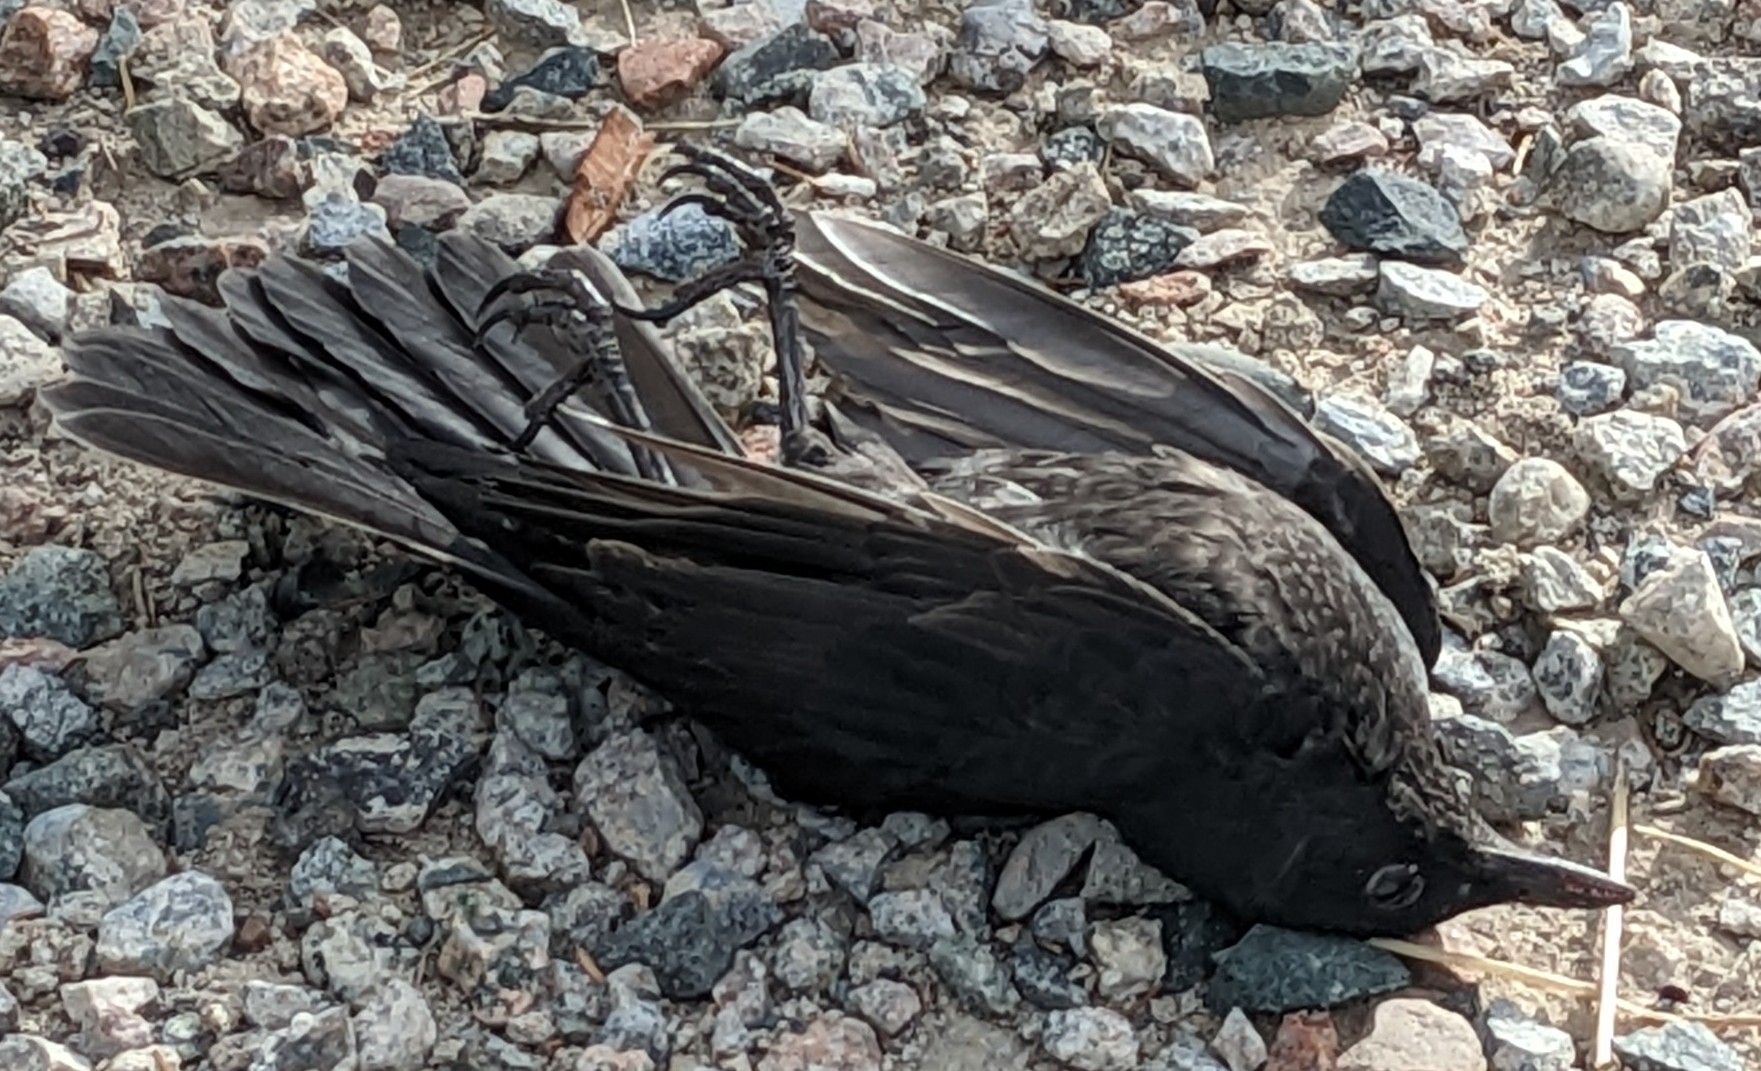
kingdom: Animalia
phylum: Chordata
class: Aves
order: Passeriformes
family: Turdidae
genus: Turdus
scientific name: Turdus merula
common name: Common blackbird
